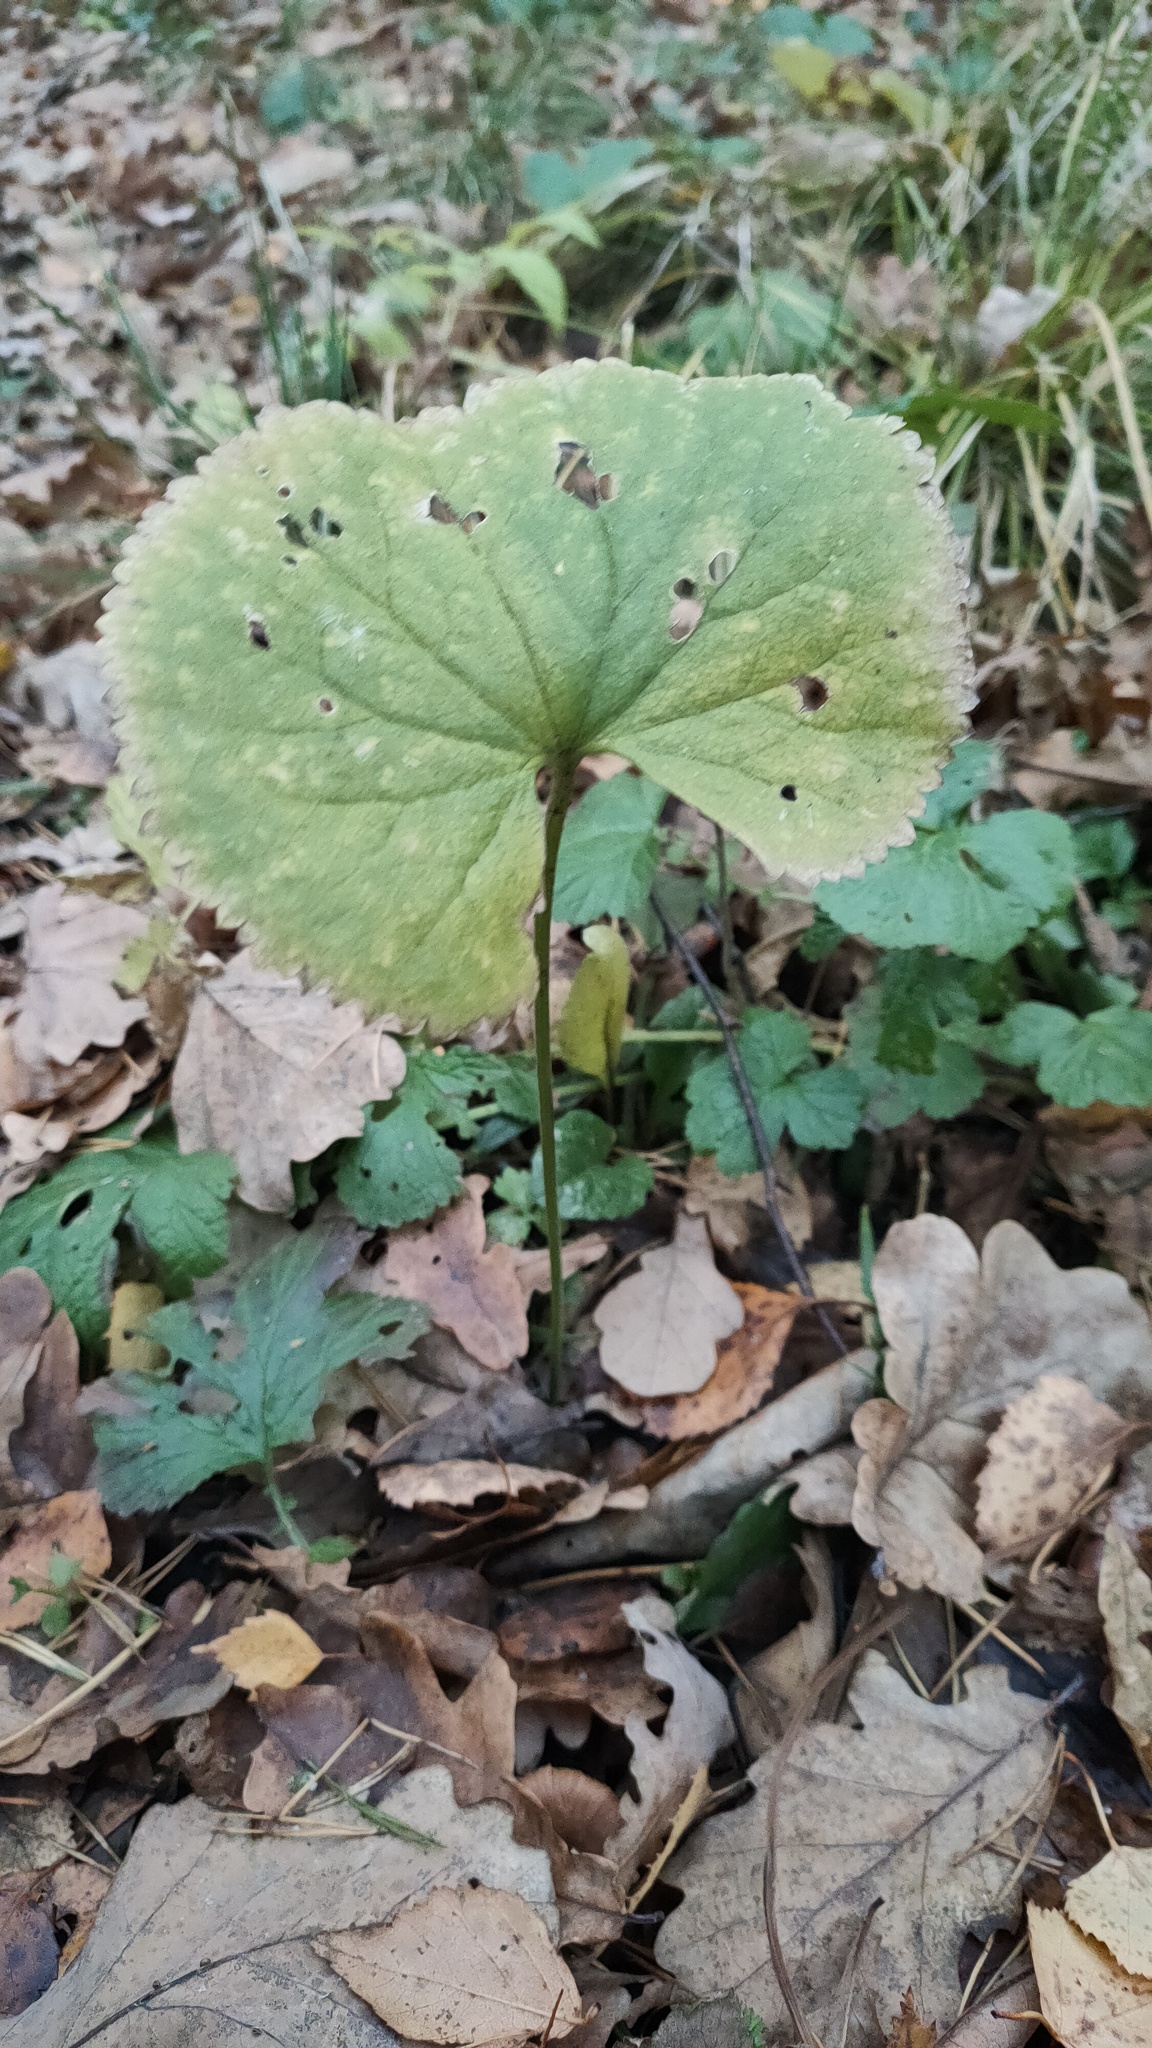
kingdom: Plantae
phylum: Tracheophyta
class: Magnoliopsida
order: Ranunculales
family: Ranunculaceae
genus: Ranunculus
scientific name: Ranunculus cassubicus
